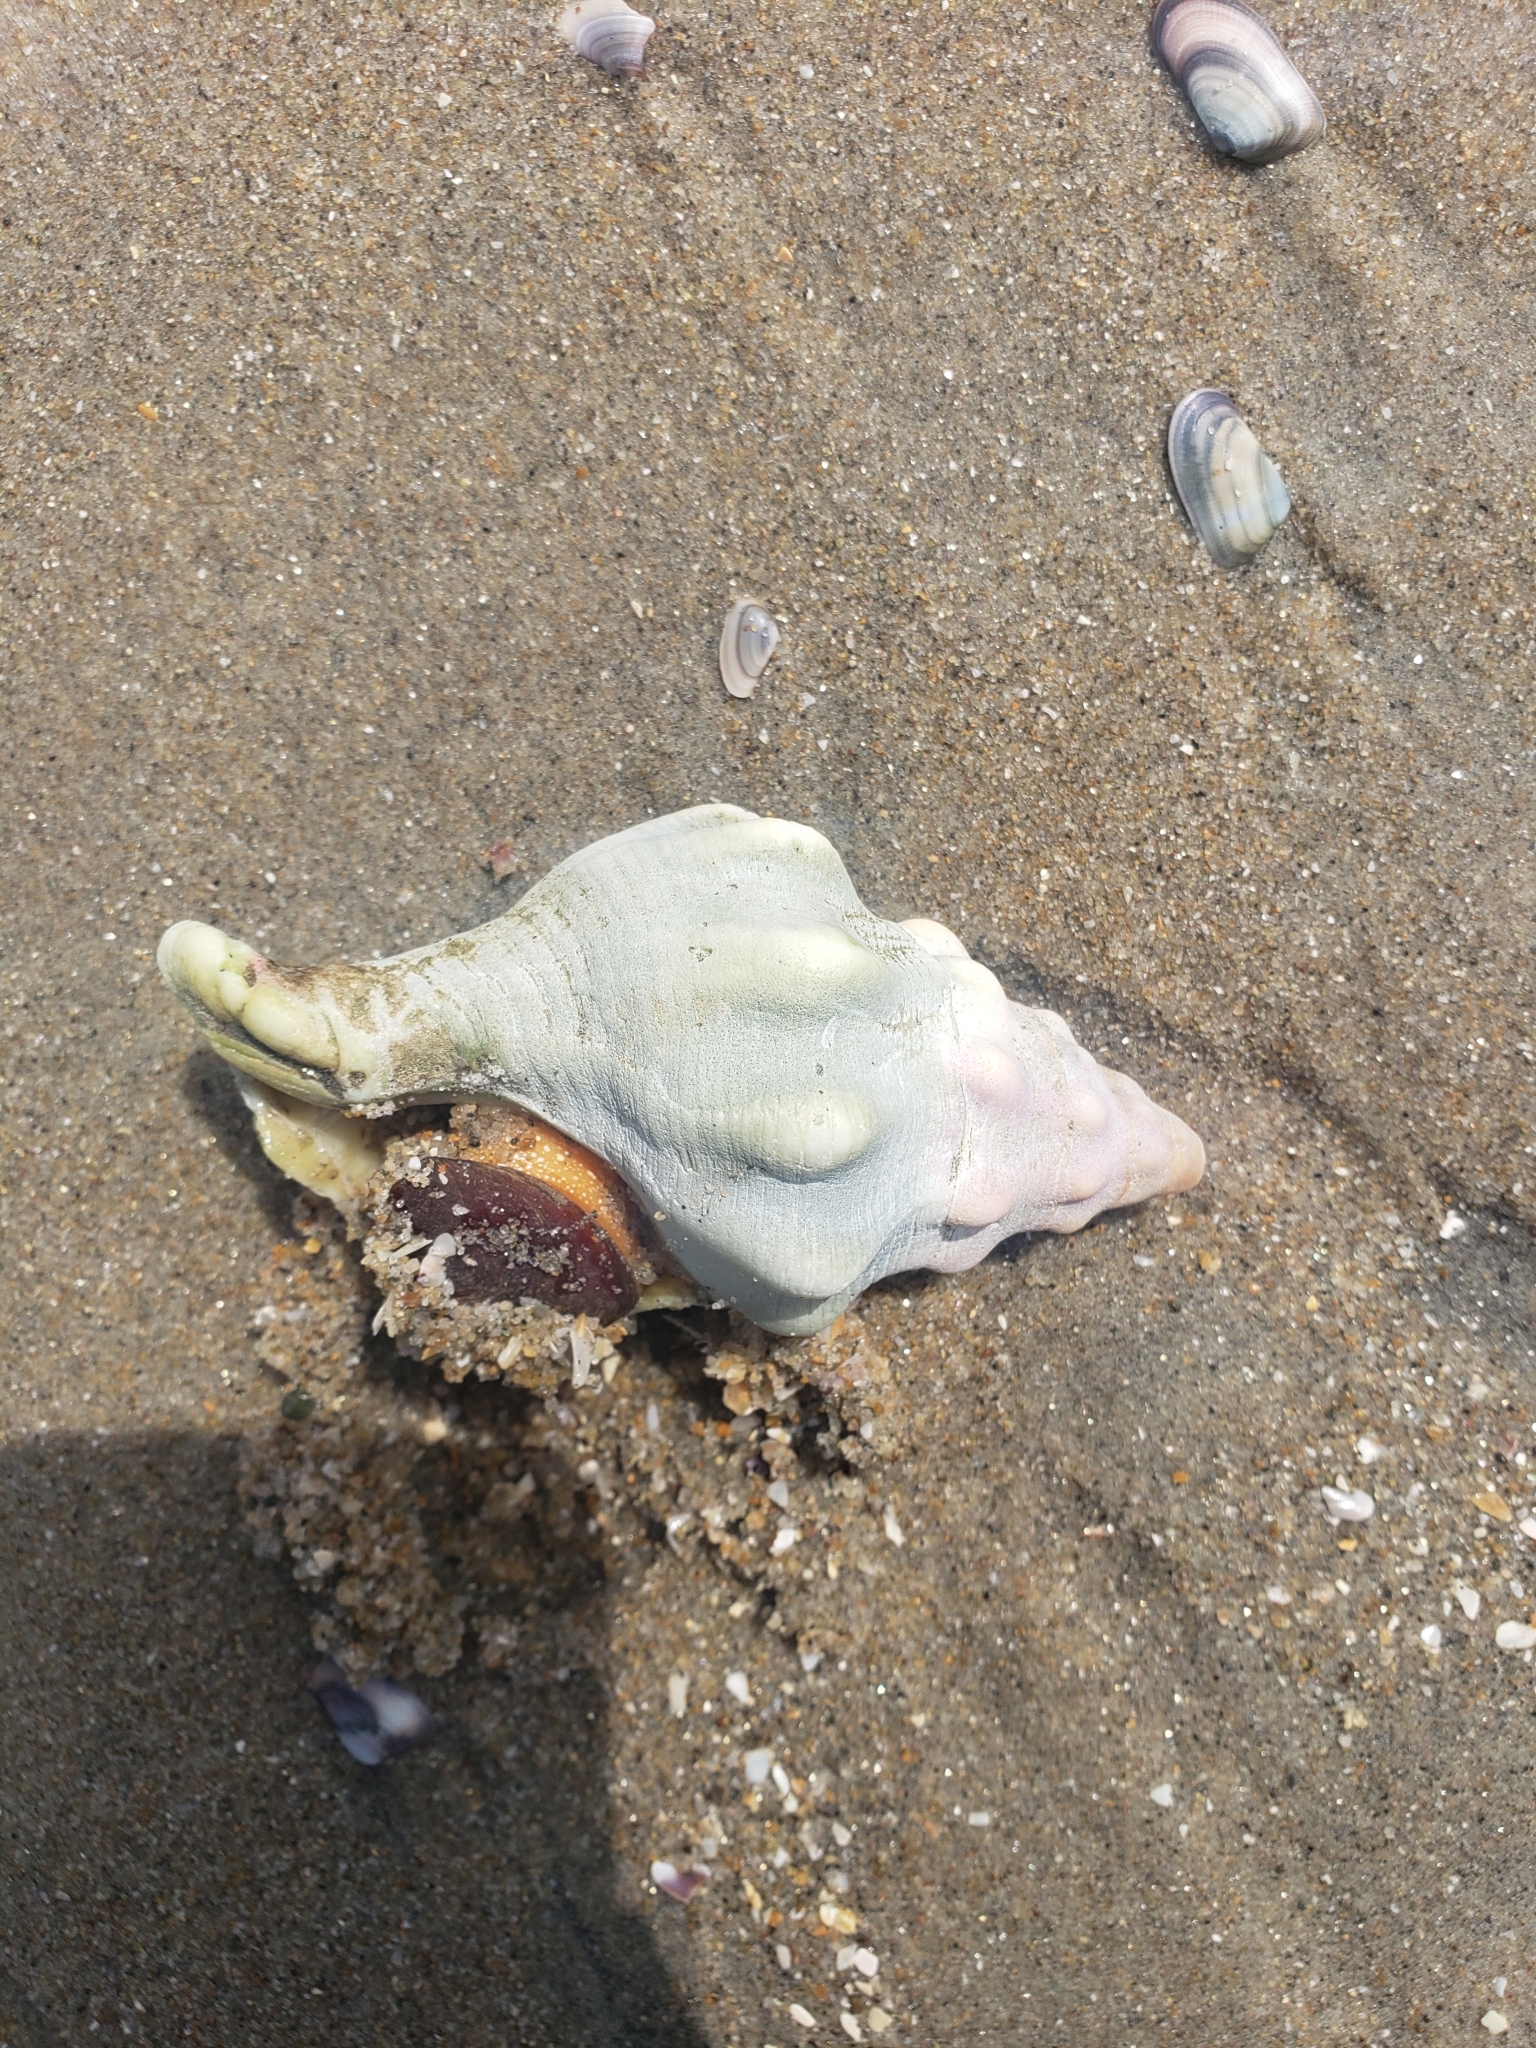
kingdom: Animalia
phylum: Mollusca
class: Gastropoda
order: Neogastropoda
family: Austrosiphonidae
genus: Kelletia
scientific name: Kelletia kelletii
